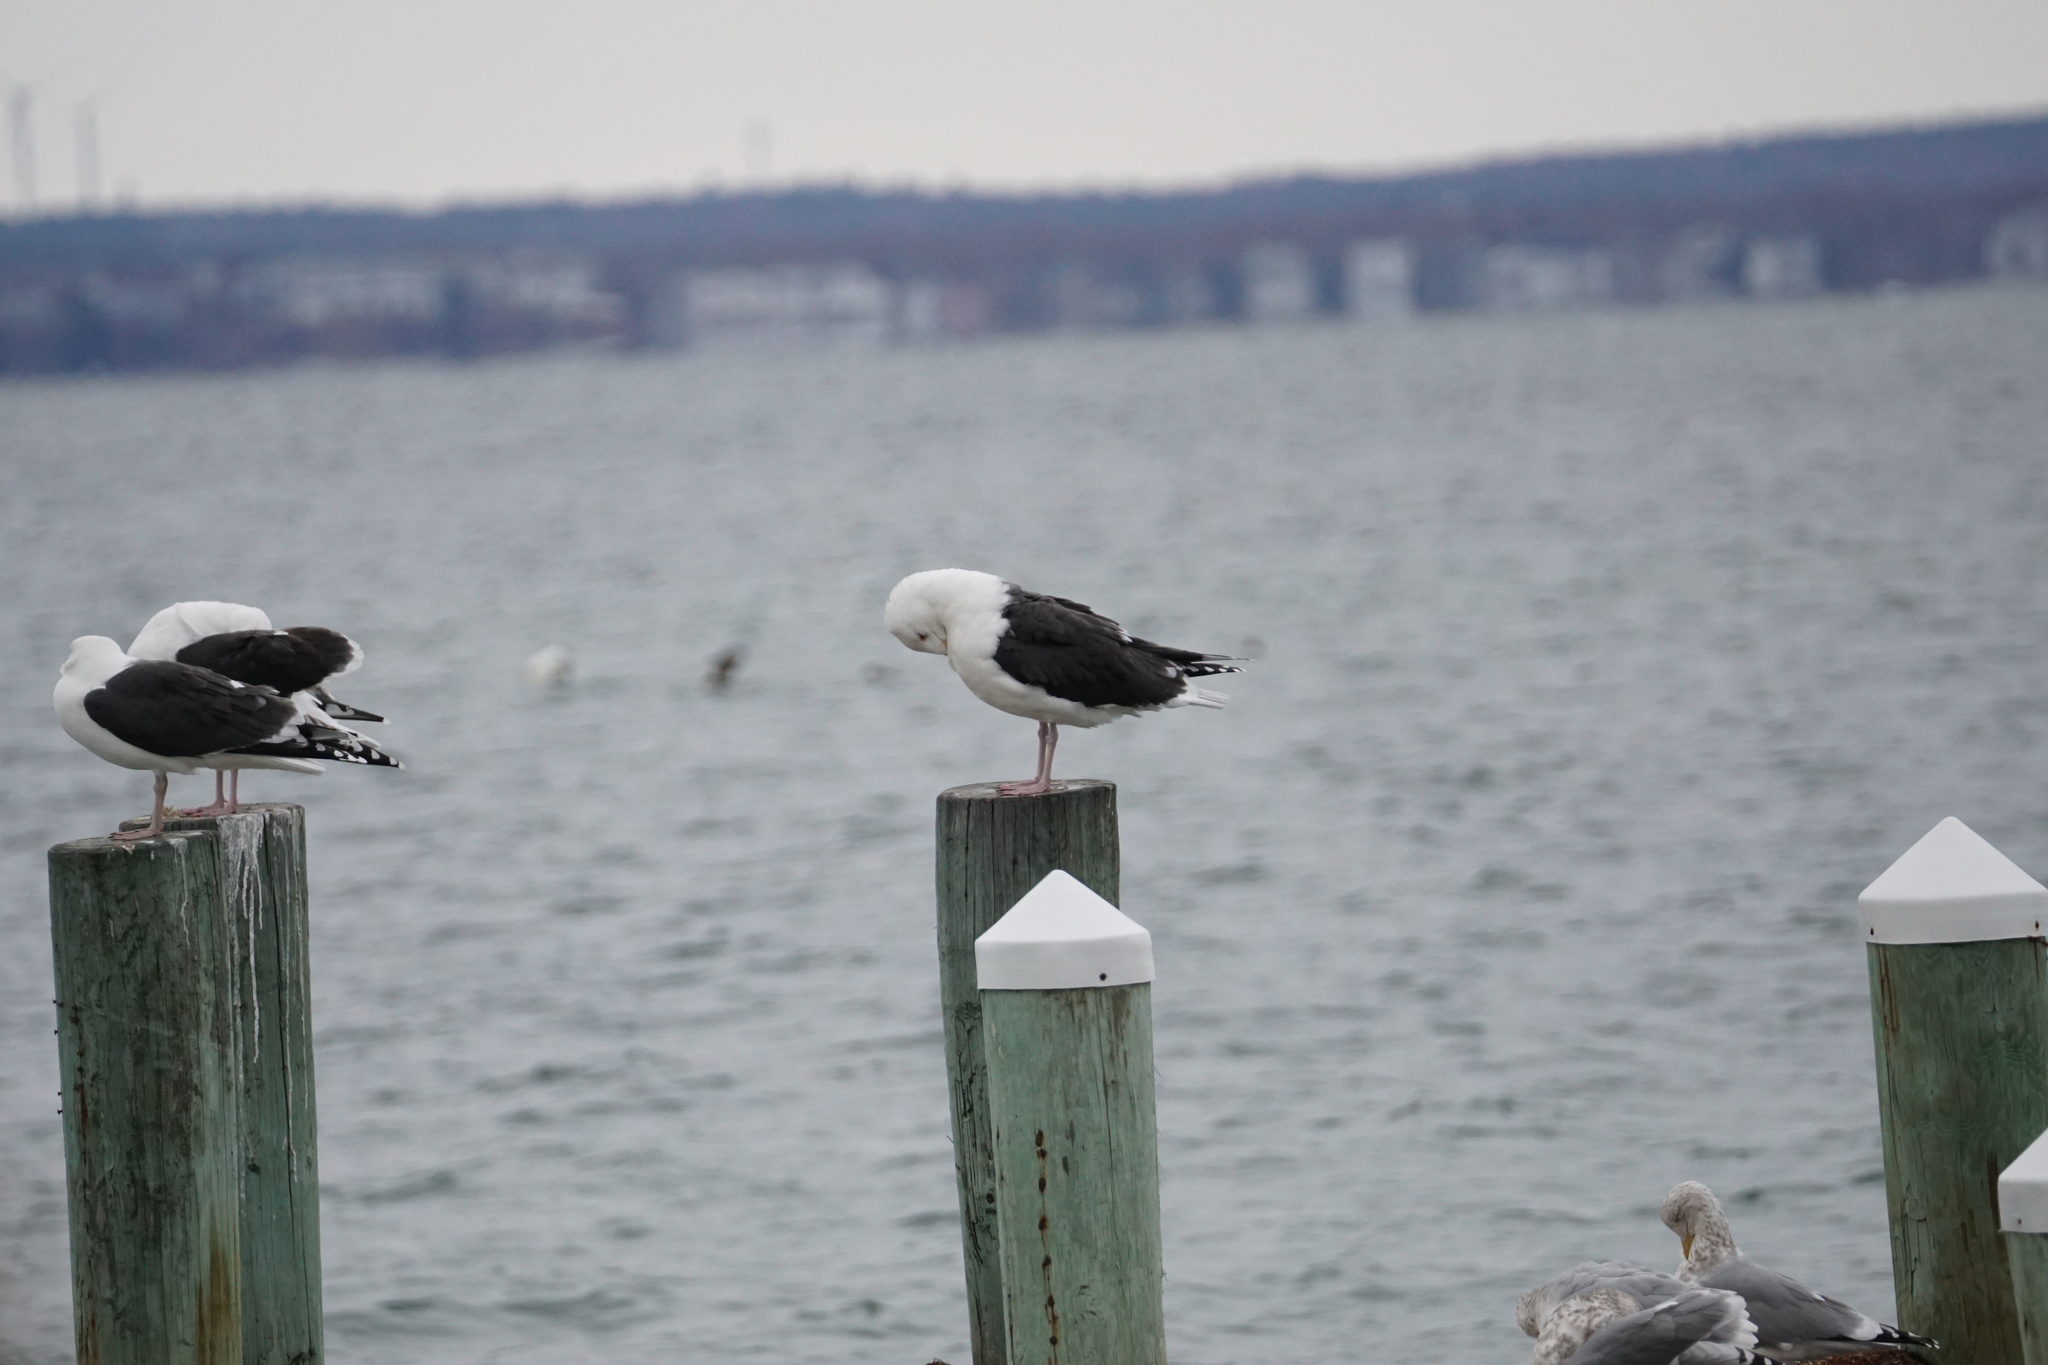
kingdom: Animalia
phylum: Chordata
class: Aves
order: Charadriiformes
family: Laridae
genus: Larus
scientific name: Larus marinus
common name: Great black-backed gull
